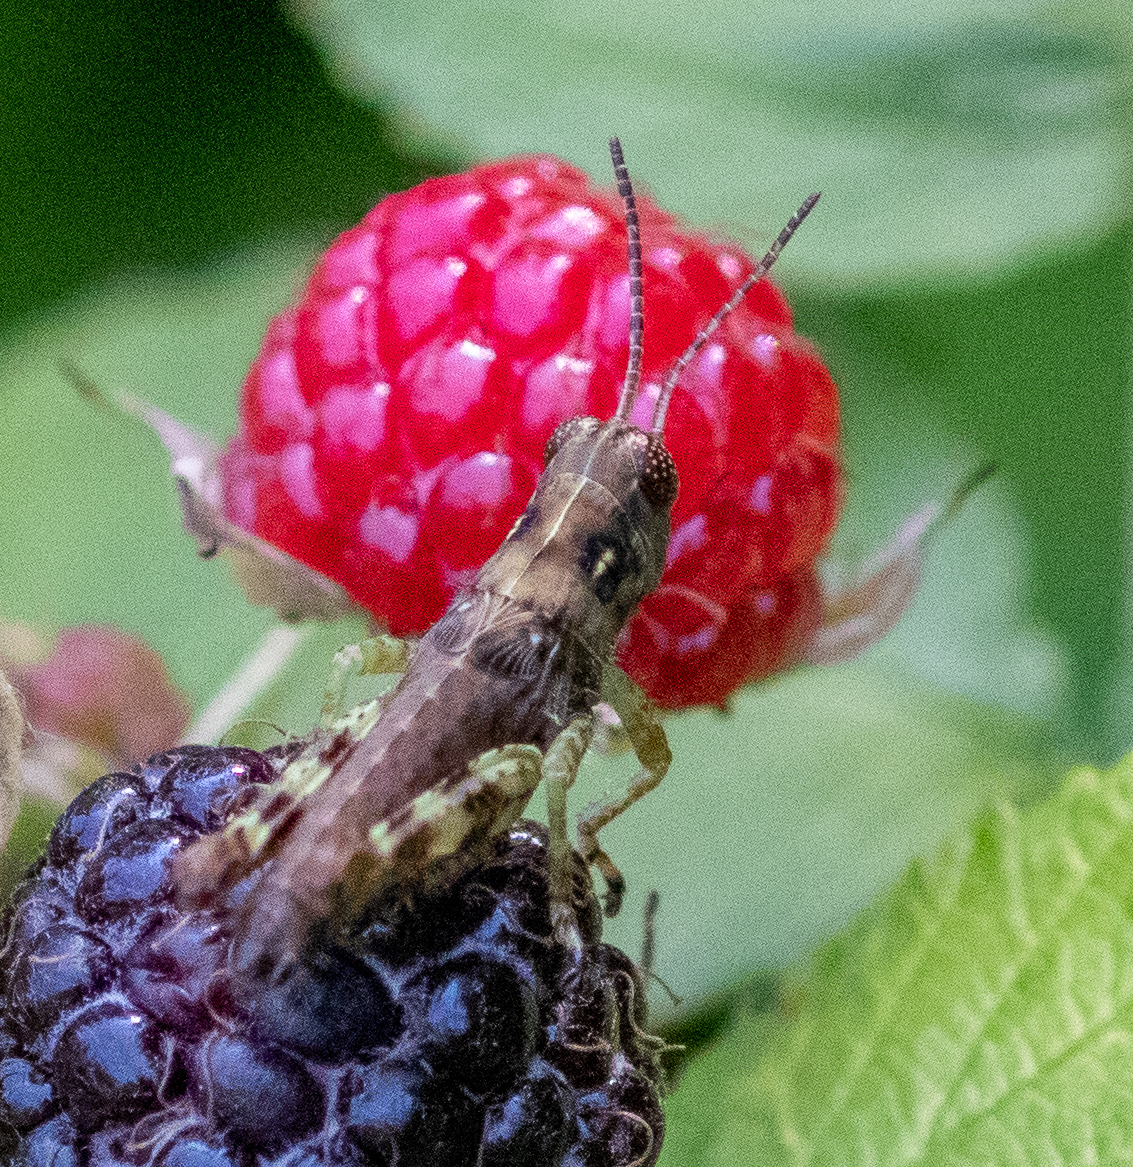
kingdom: Animalia
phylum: Arthropoda
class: Insecta
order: Orthoptera
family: Acrididae
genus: Melanoplus
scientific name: Melanoplus punctulatus
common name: Pine-tree spur-throat grasshopper
